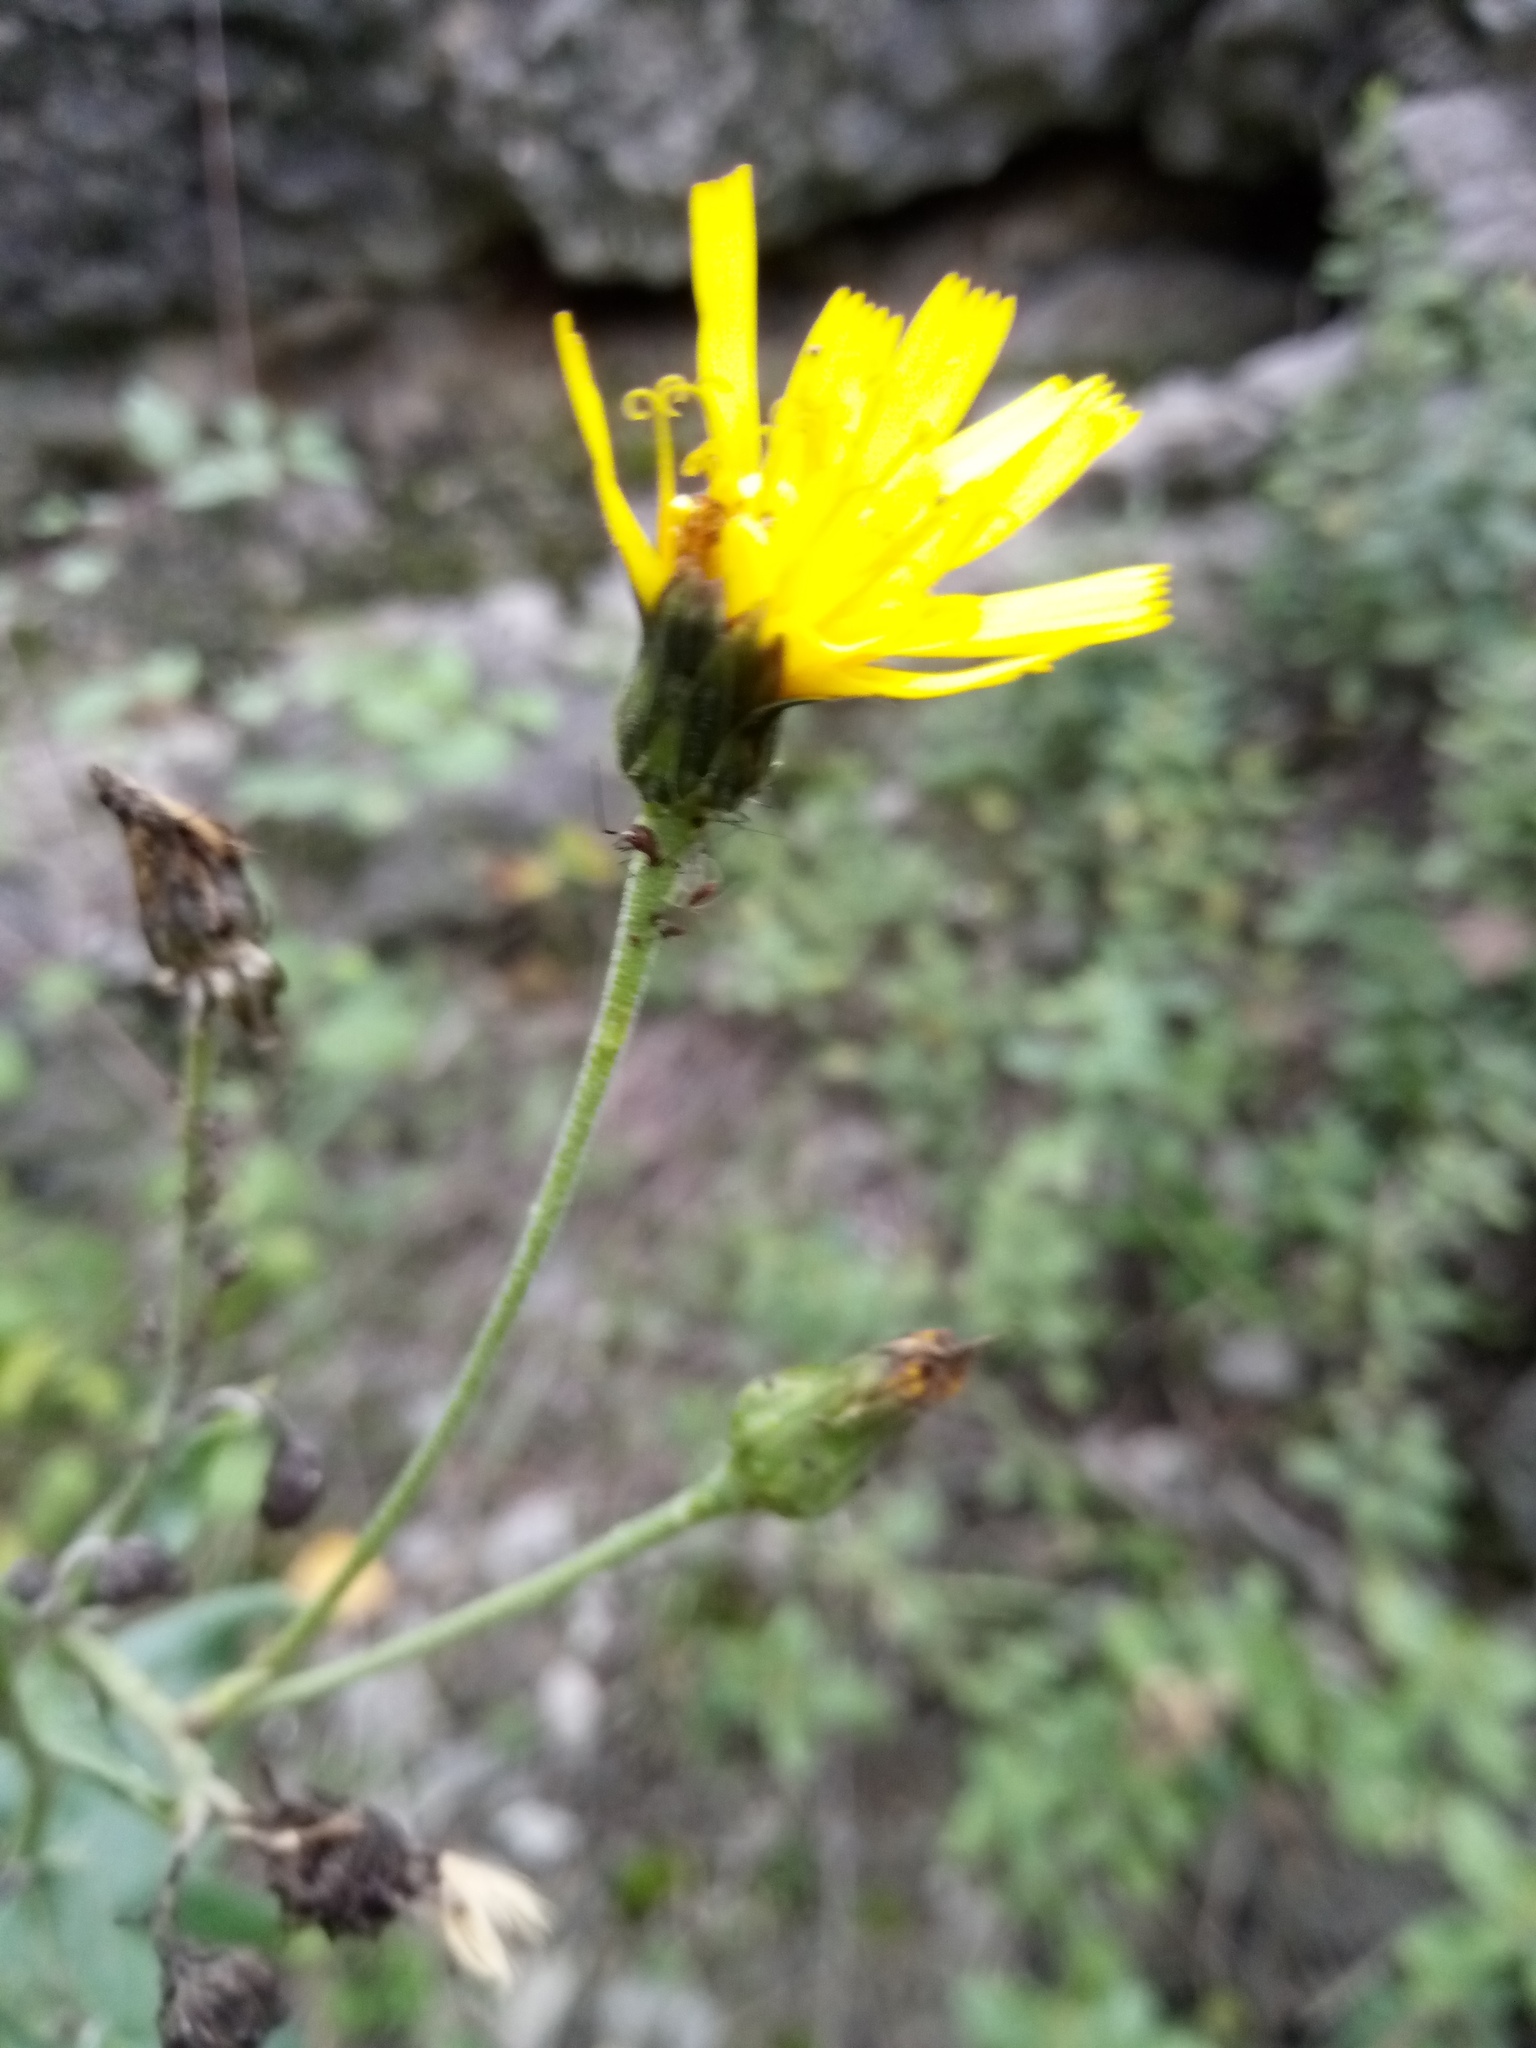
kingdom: Plantae
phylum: Tracheophyta
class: Magnoliopsida
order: Asterales
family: Asteraceae
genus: Hieracium
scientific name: Hieracium sabaudum
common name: New england hawkweed
